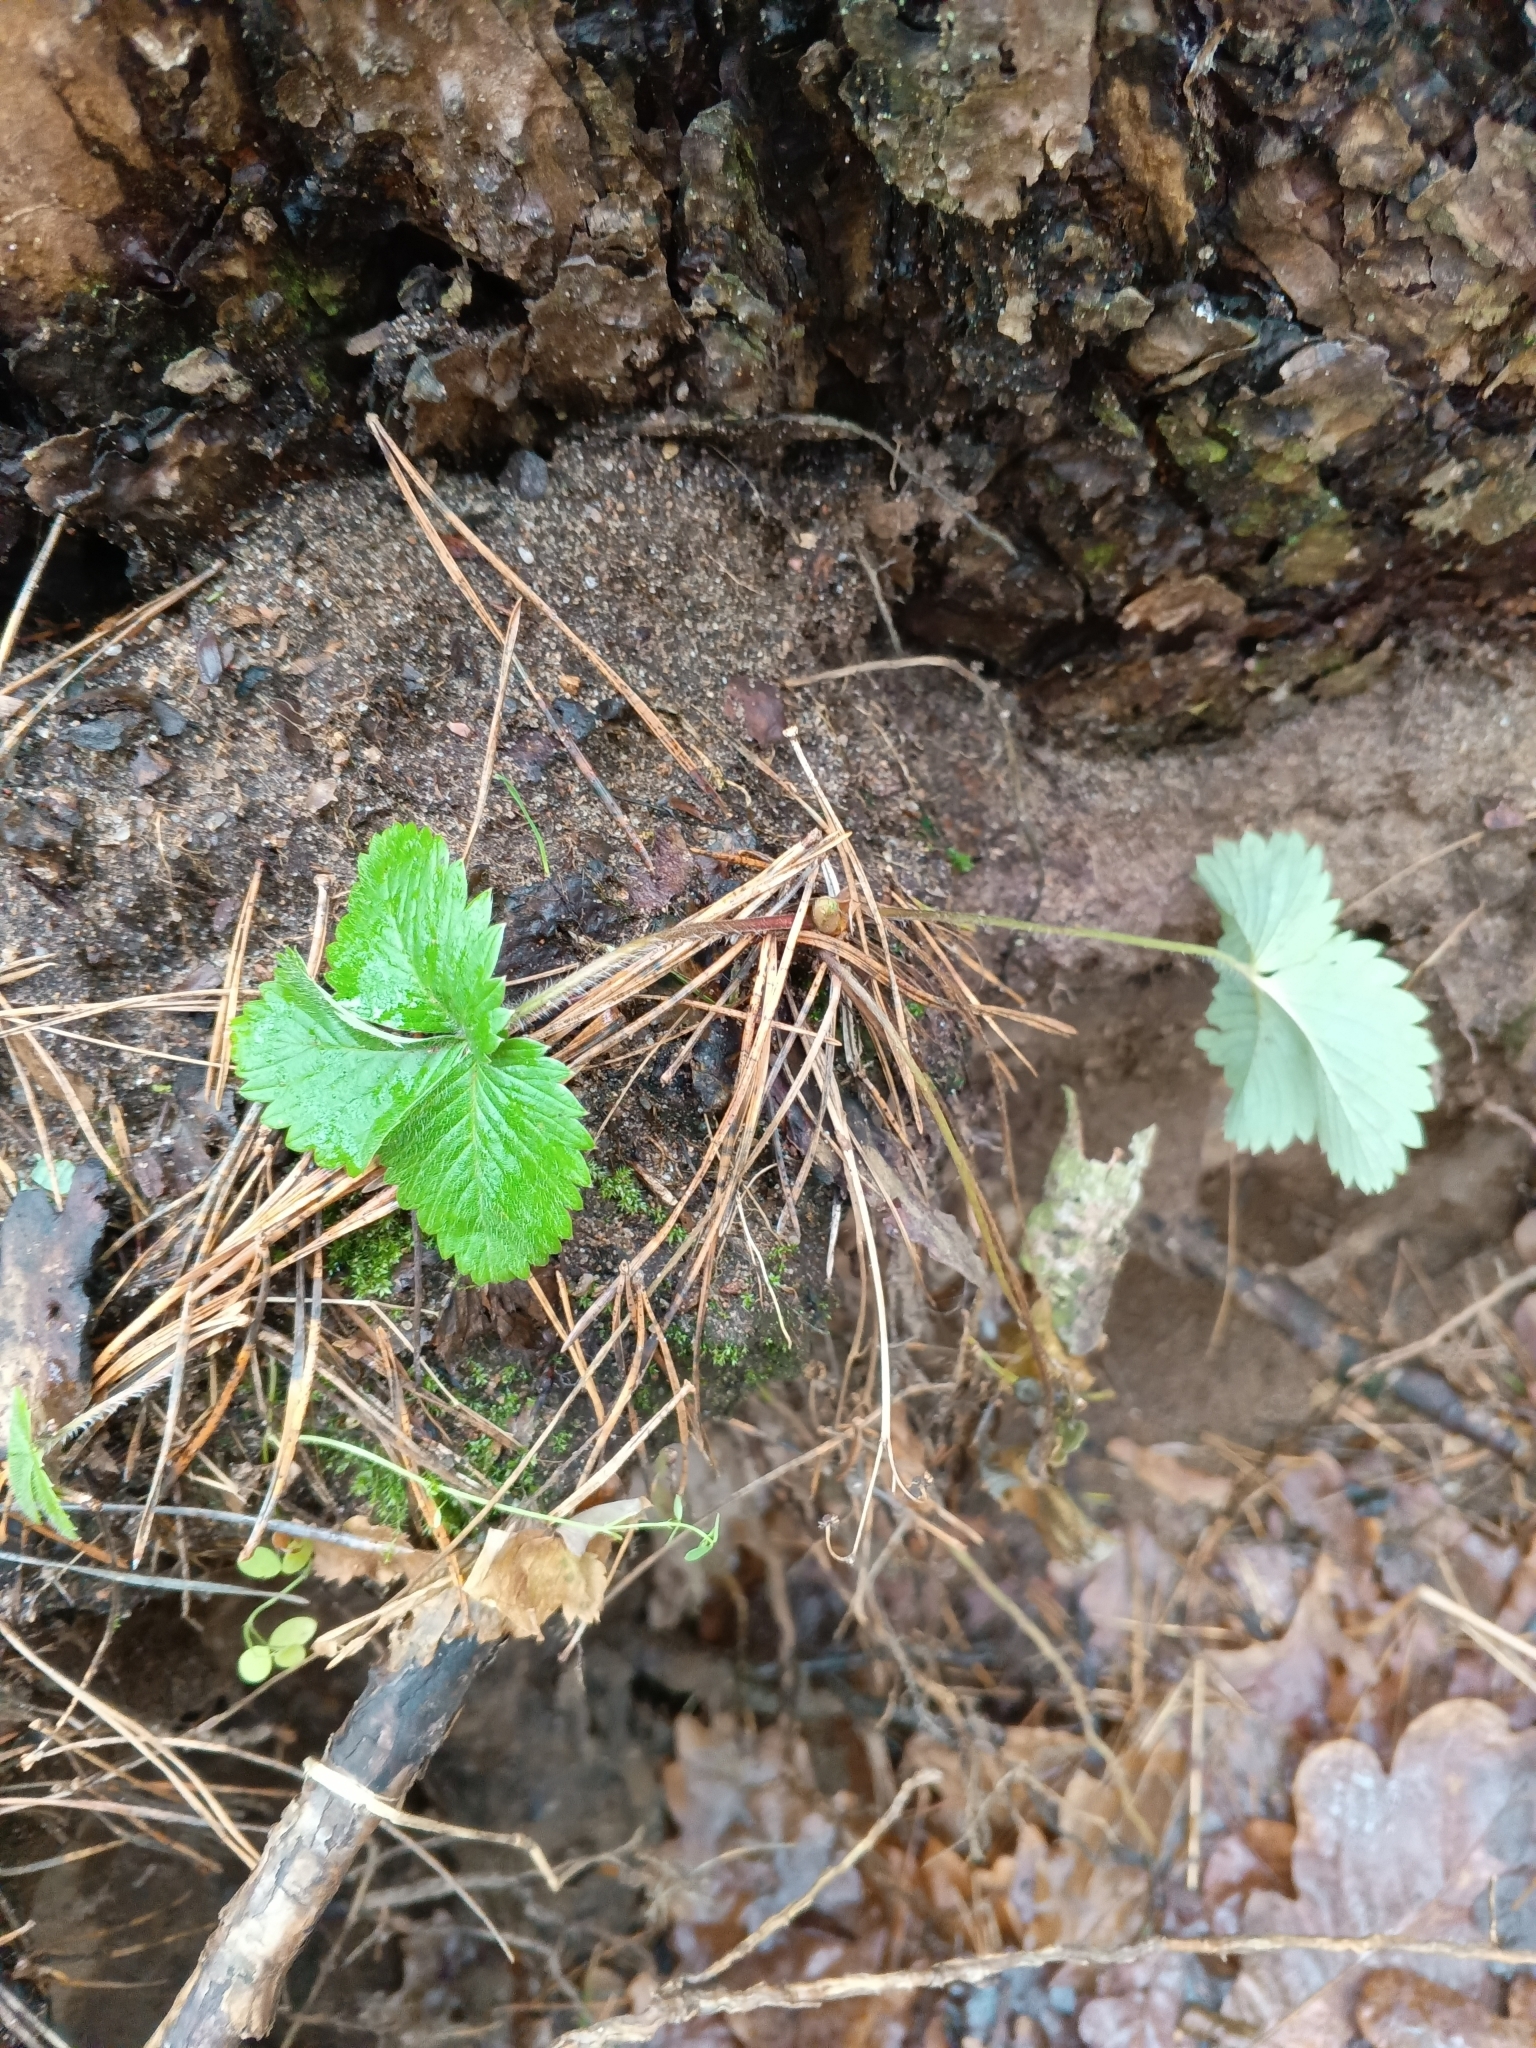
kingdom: Plantae
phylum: Tracheophyta
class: Magnoliopsida
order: Rosales
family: Rosaceae
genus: Fragaria
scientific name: Fragaria vesca
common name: Wild strawberry
